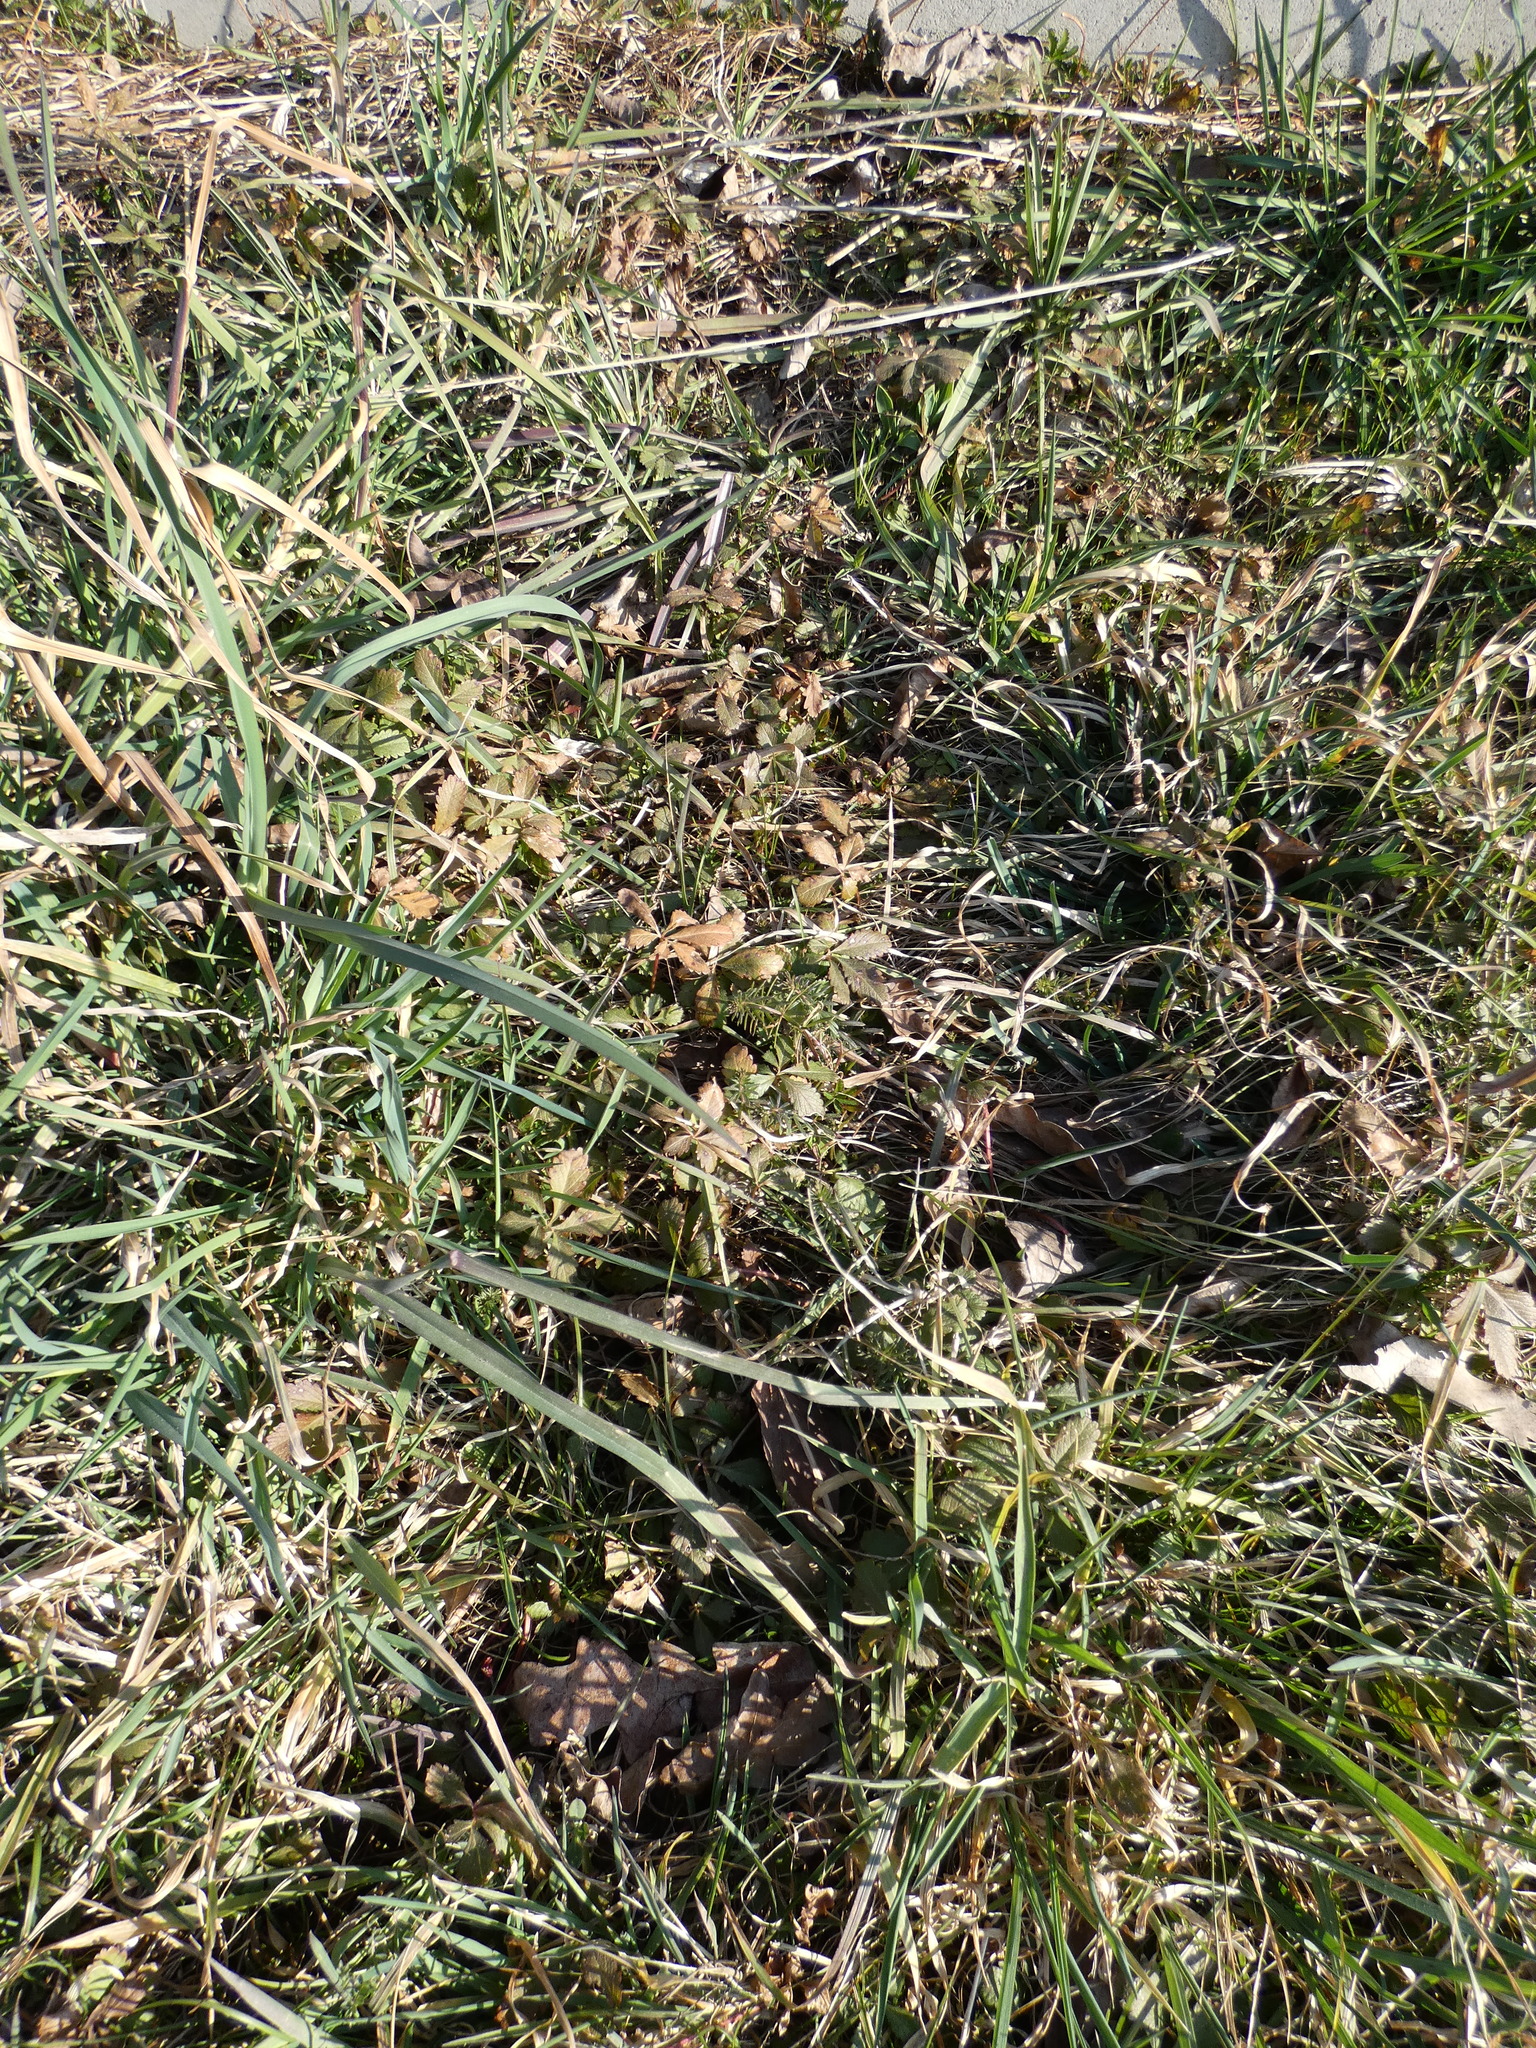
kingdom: Plantae
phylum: Tracheophyta
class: Magnoliopsida
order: Rosales
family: Rosaceae
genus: Potentilla
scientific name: Potentilla reptans
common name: Creeping cinquefoil
